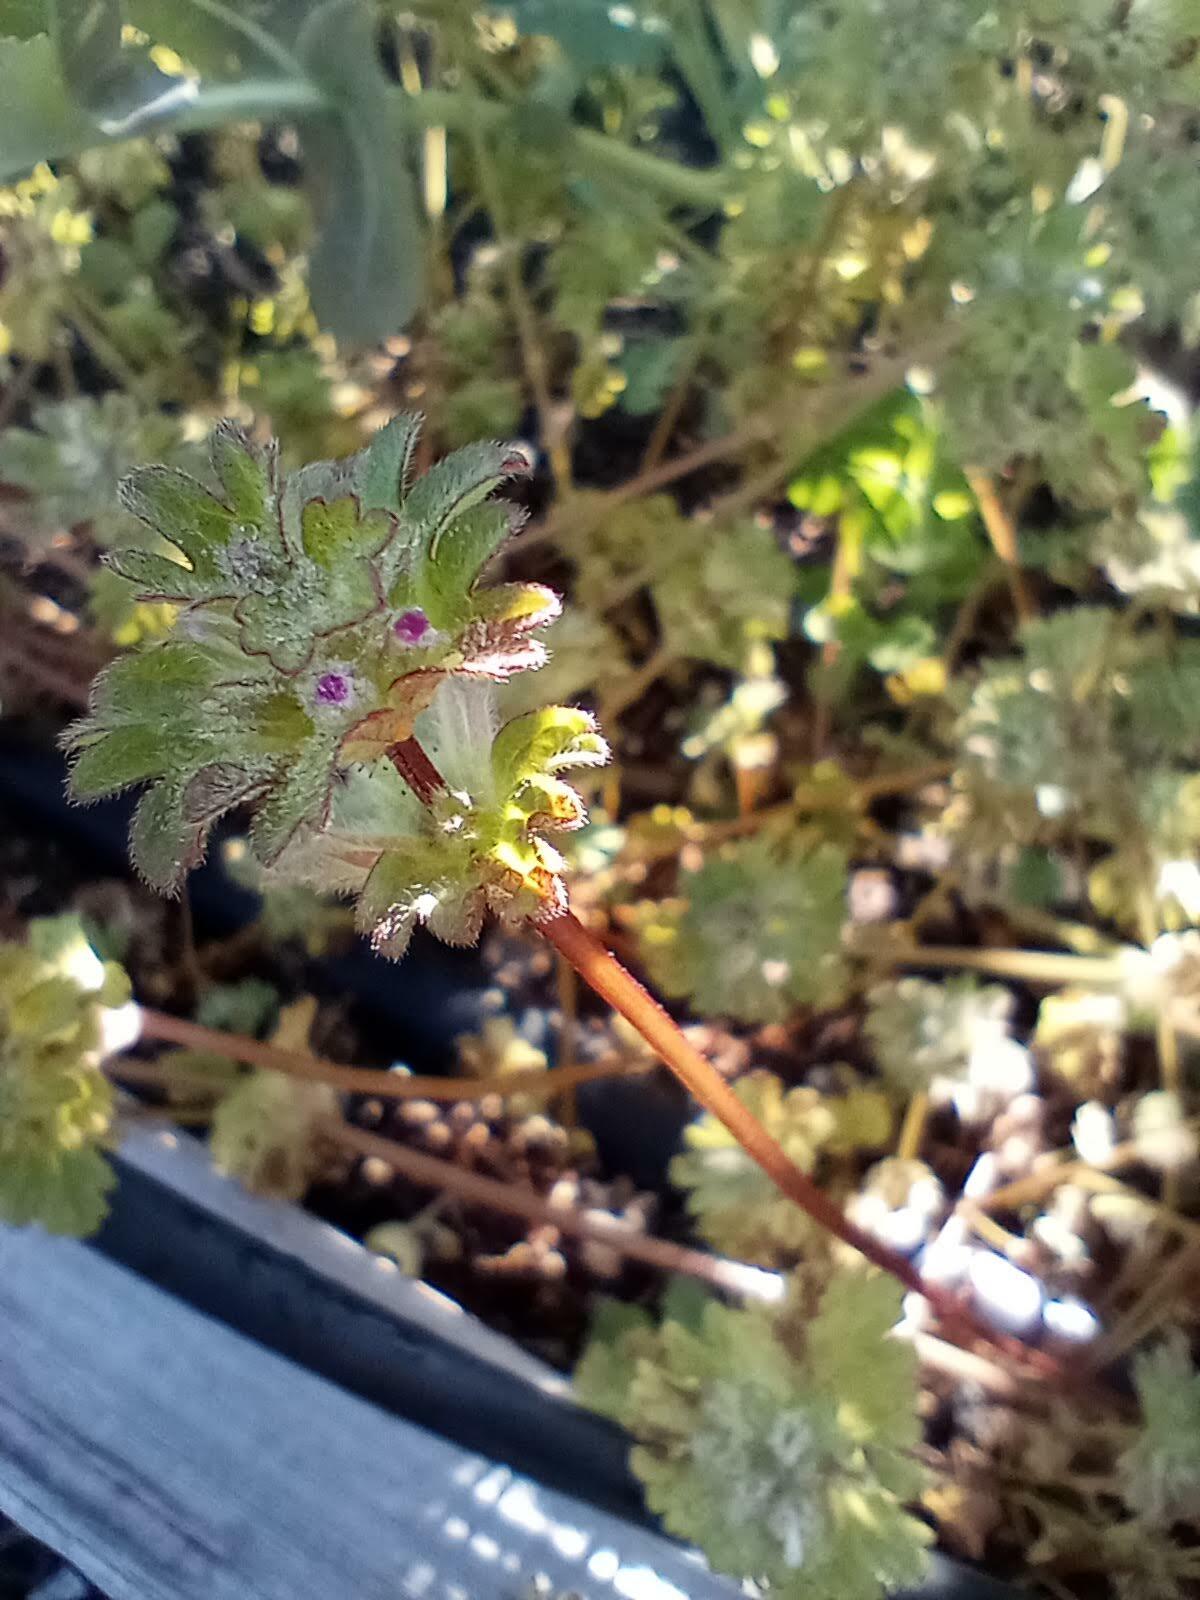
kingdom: Plantae
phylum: Tracheophyta
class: Magnoliopsida
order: Lamiales
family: Lamiaceae
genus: Lamium
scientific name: Lamium amplexicaule
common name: Henbit dead-nettle
